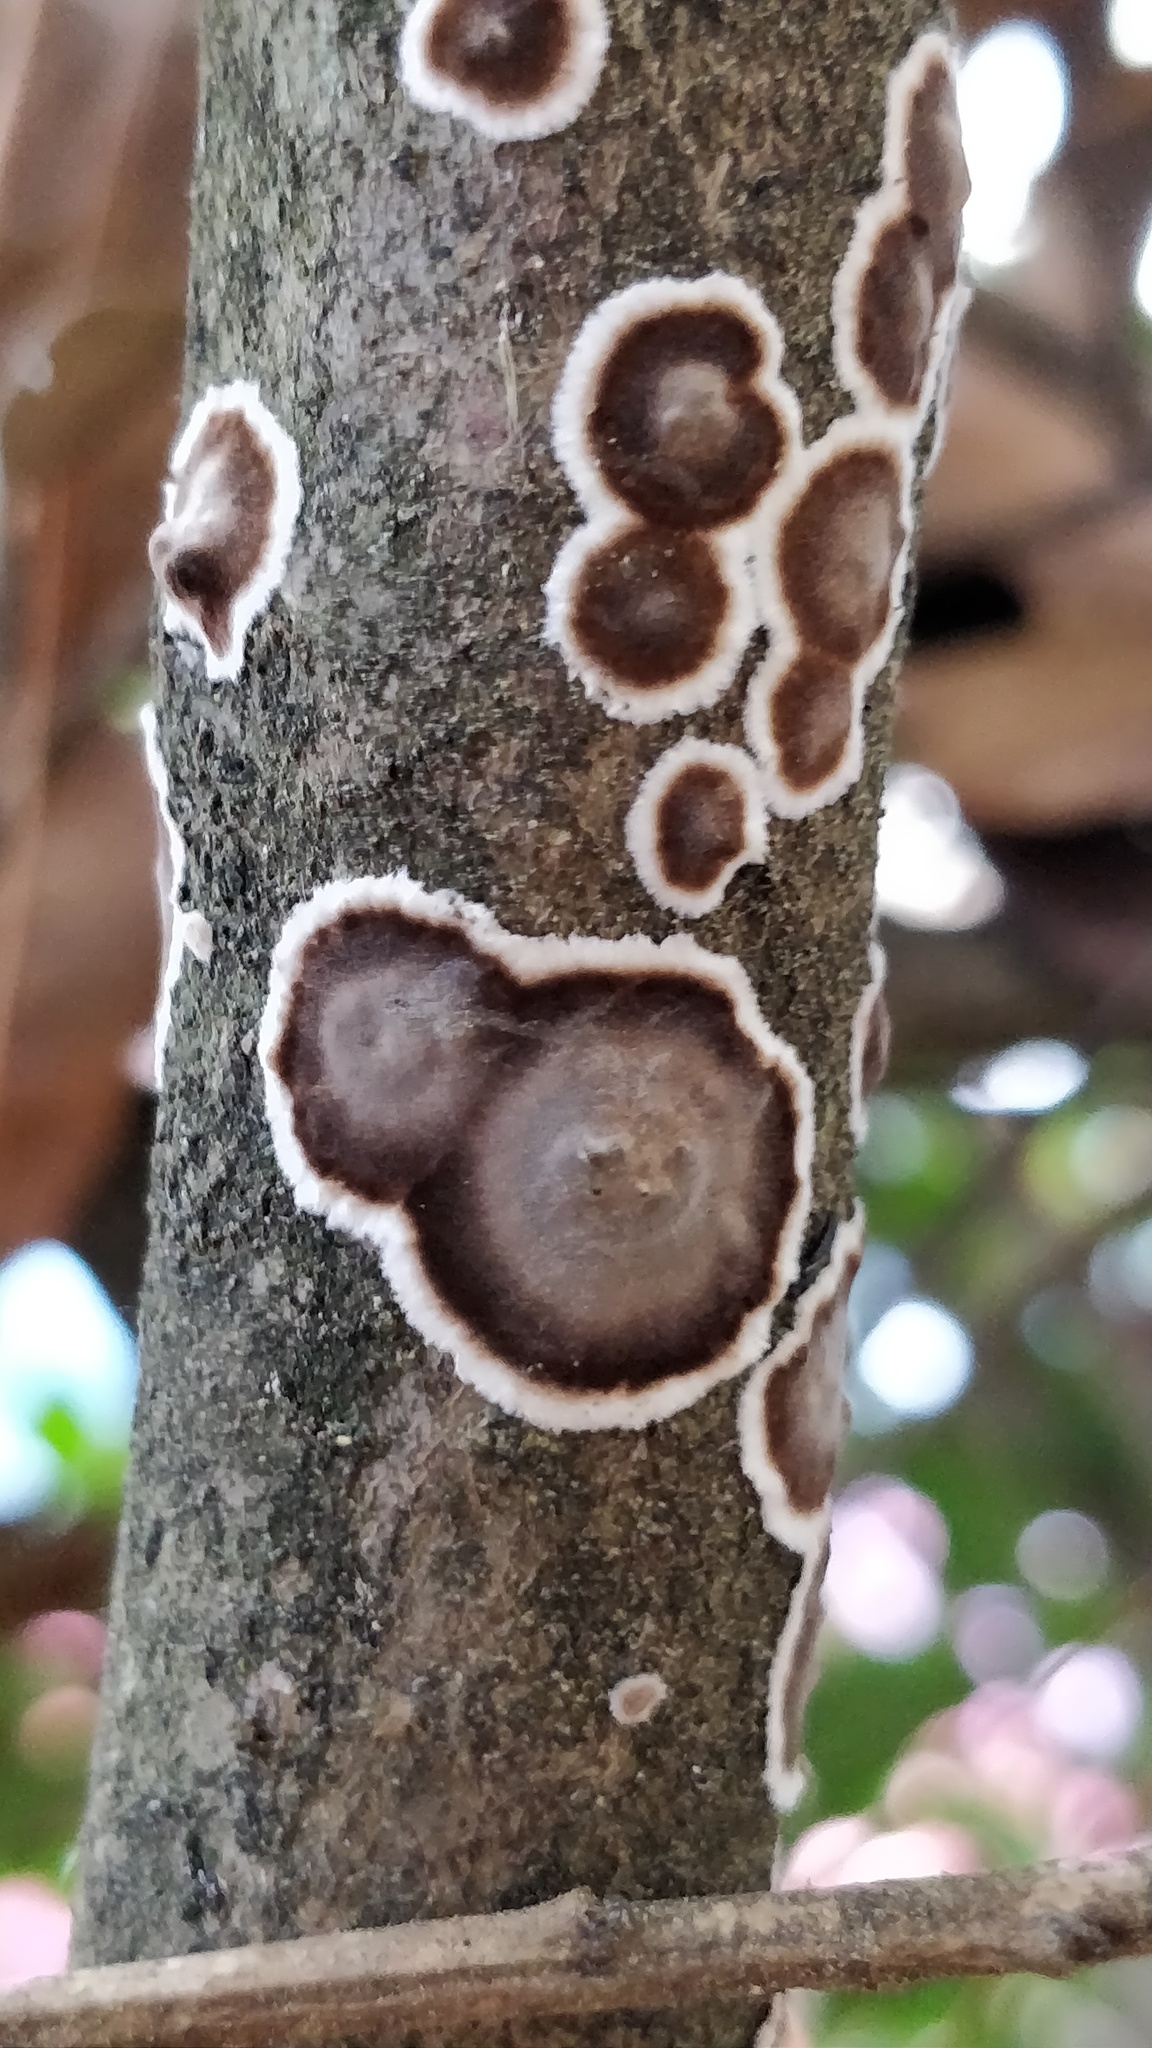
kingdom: Fungi
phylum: Basidiomycota
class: Agaricomycetes
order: Russulales
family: Peniophoraceae
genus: Peniophora
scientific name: Peniophora albobadia
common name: Giraffe spots
